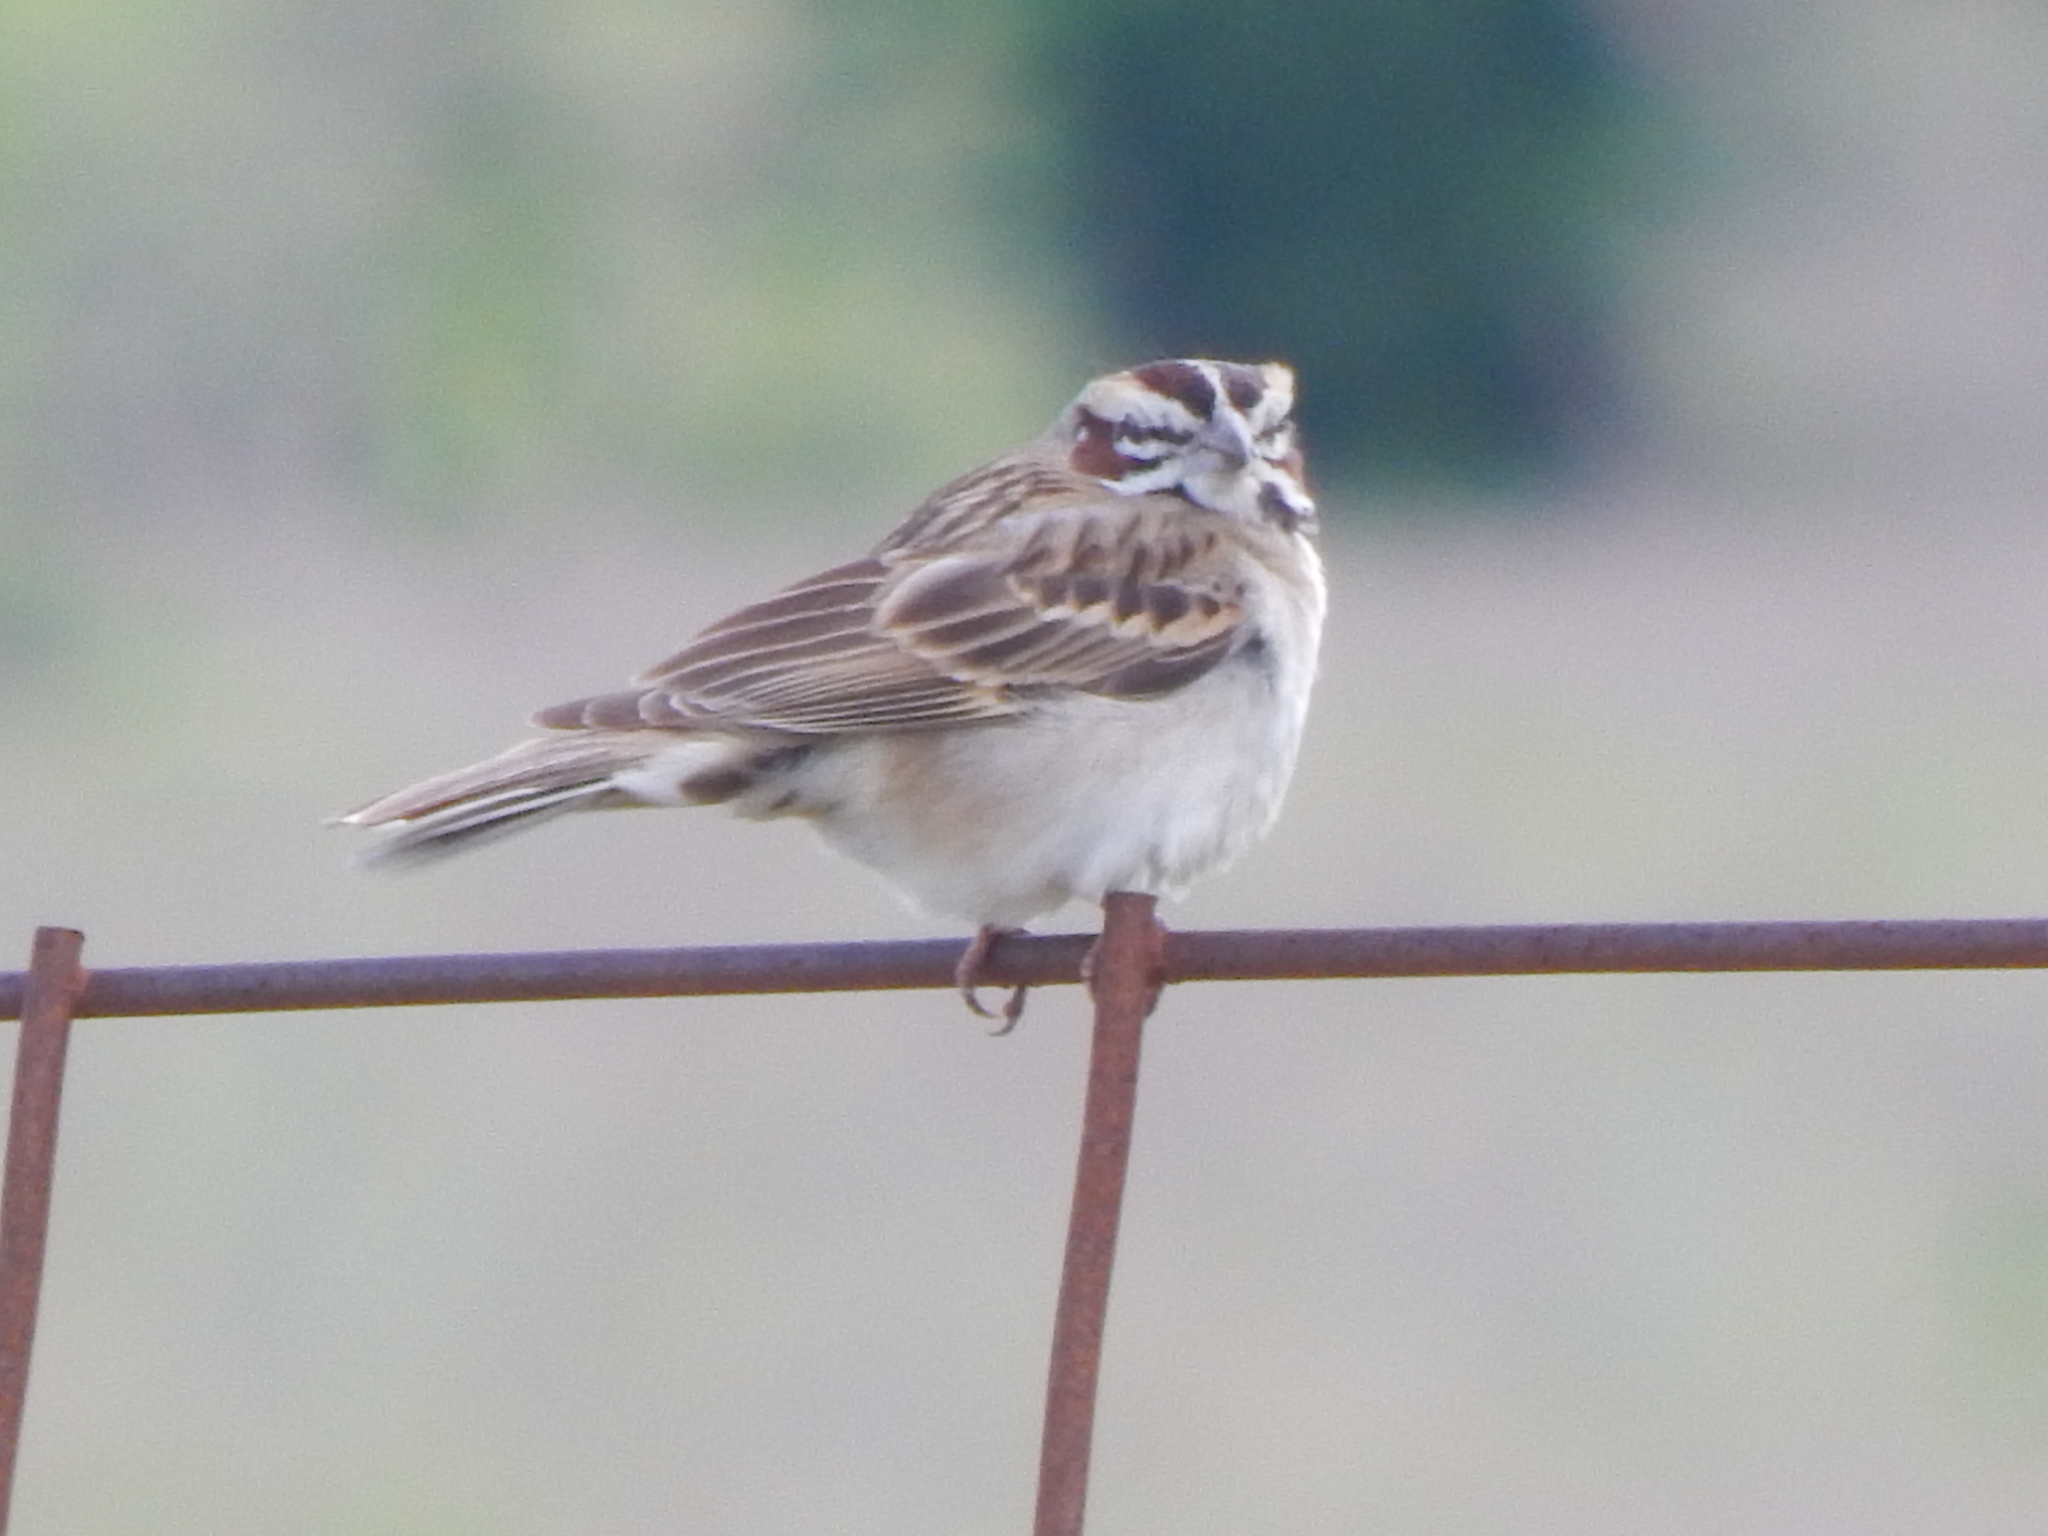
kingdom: Animalia
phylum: Chordata
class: Aves
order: Passeriformes
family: Passerellidae
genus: Chondestes
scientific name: Chondestes grammacus
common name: Lark sparrow
